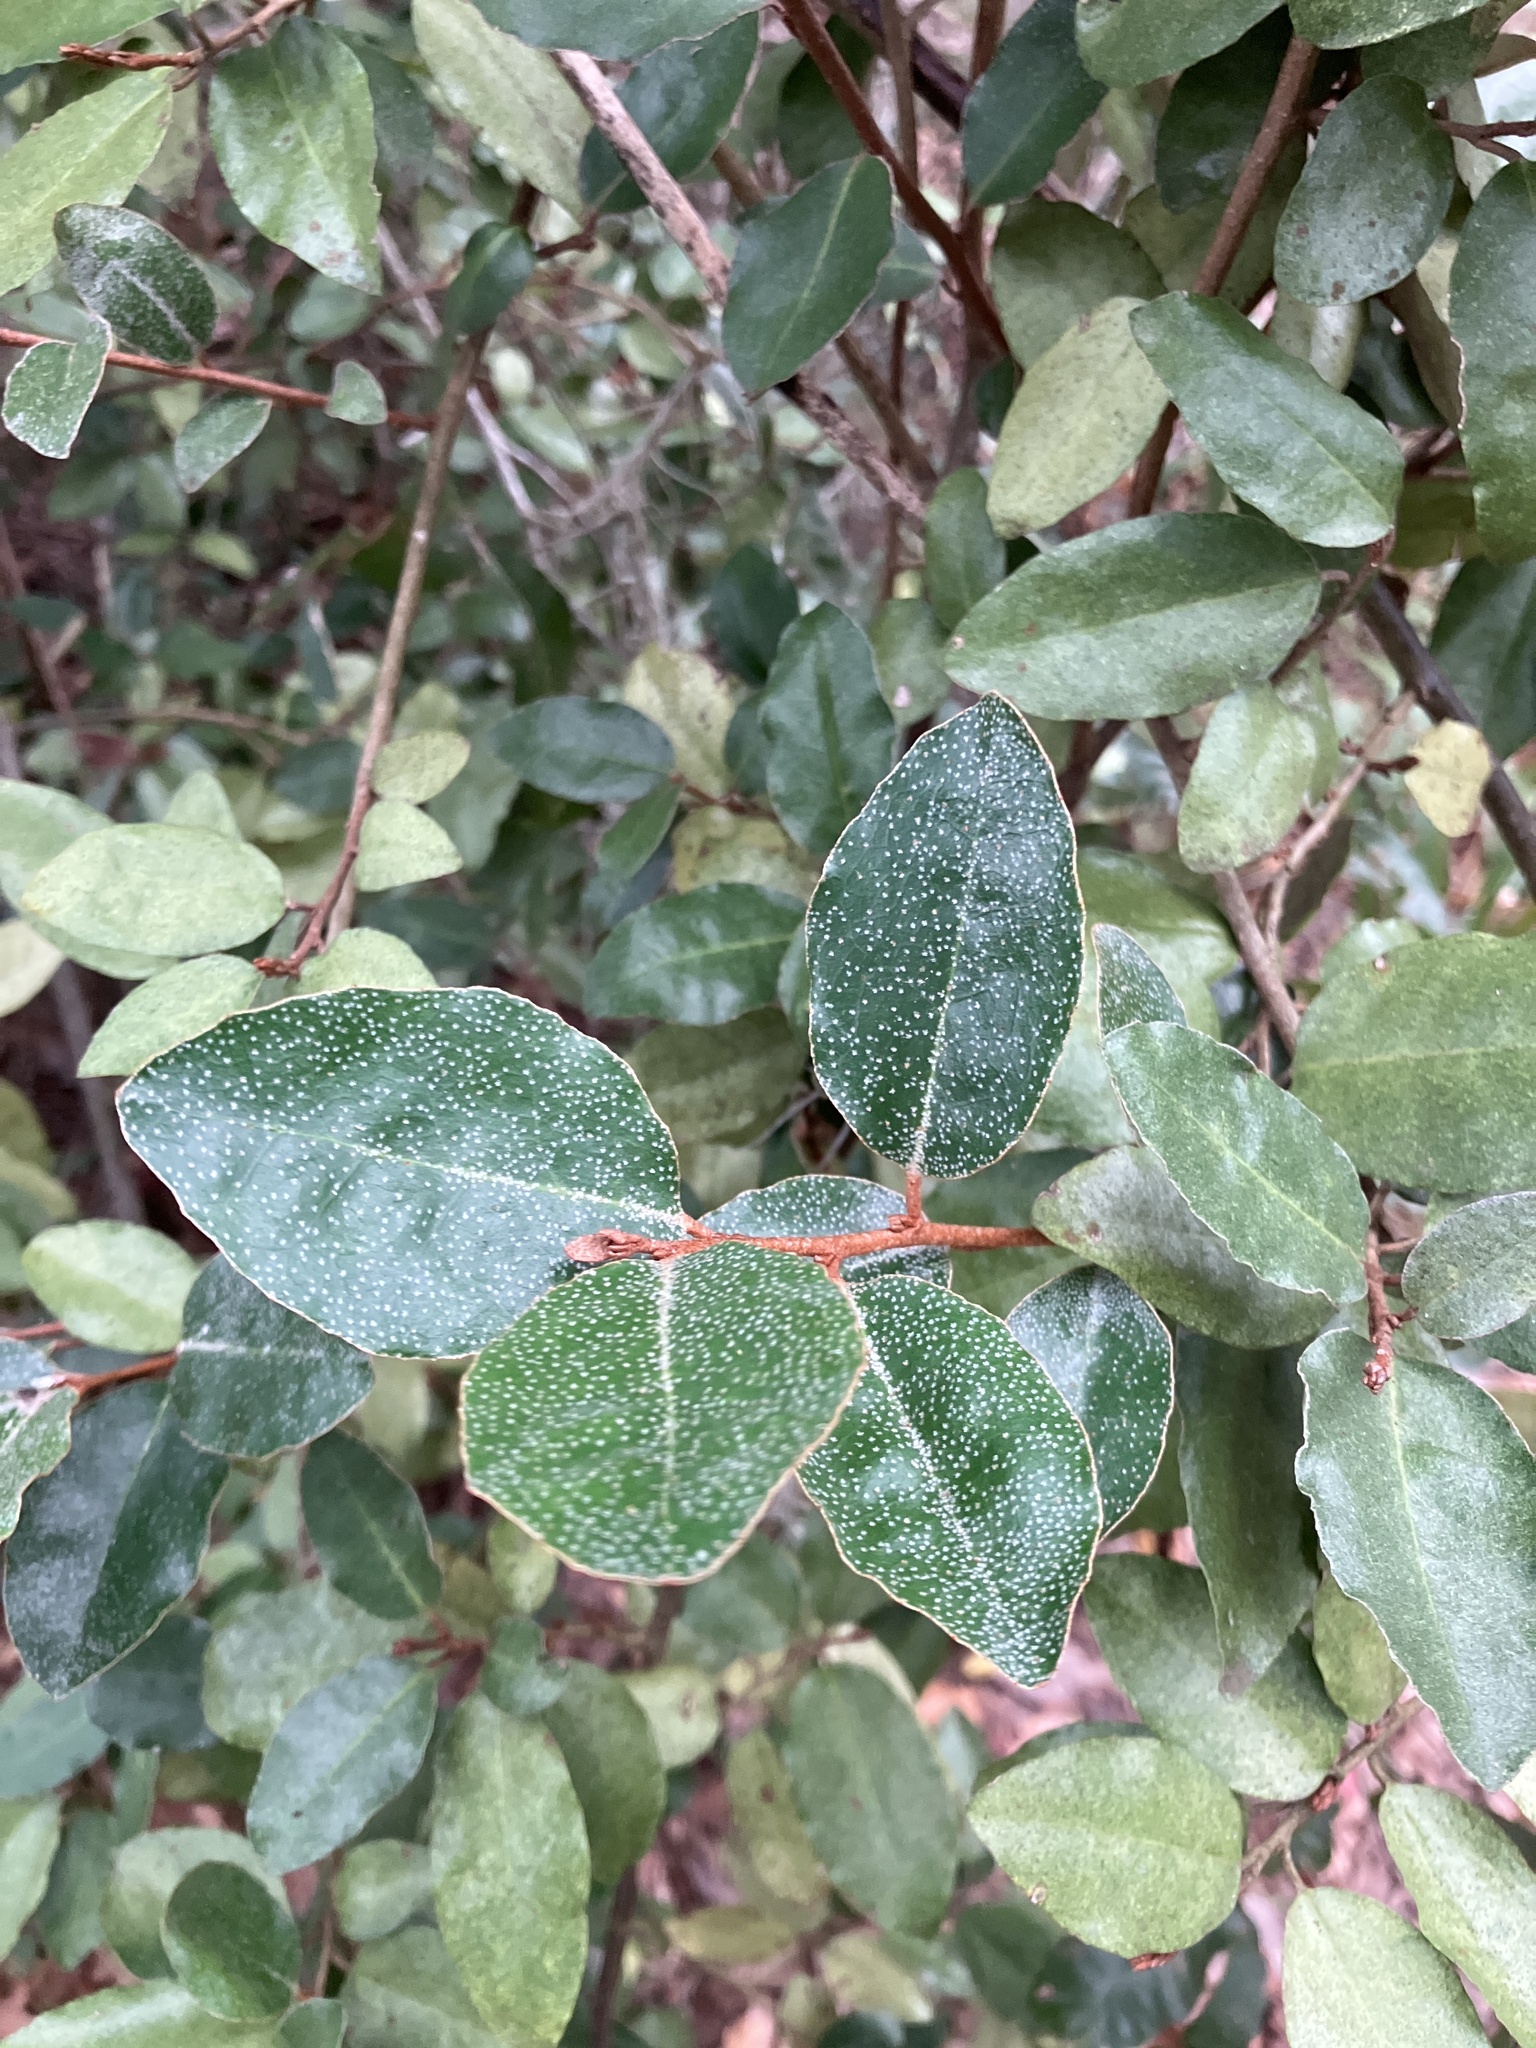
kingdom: Plantae
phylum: Tracheophyta
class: Magnoliopsida
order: Rosales
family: Elaeagnaceae
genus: Elaeagnus
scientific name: Elaeagnus pungens
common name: Spiny oleaster
